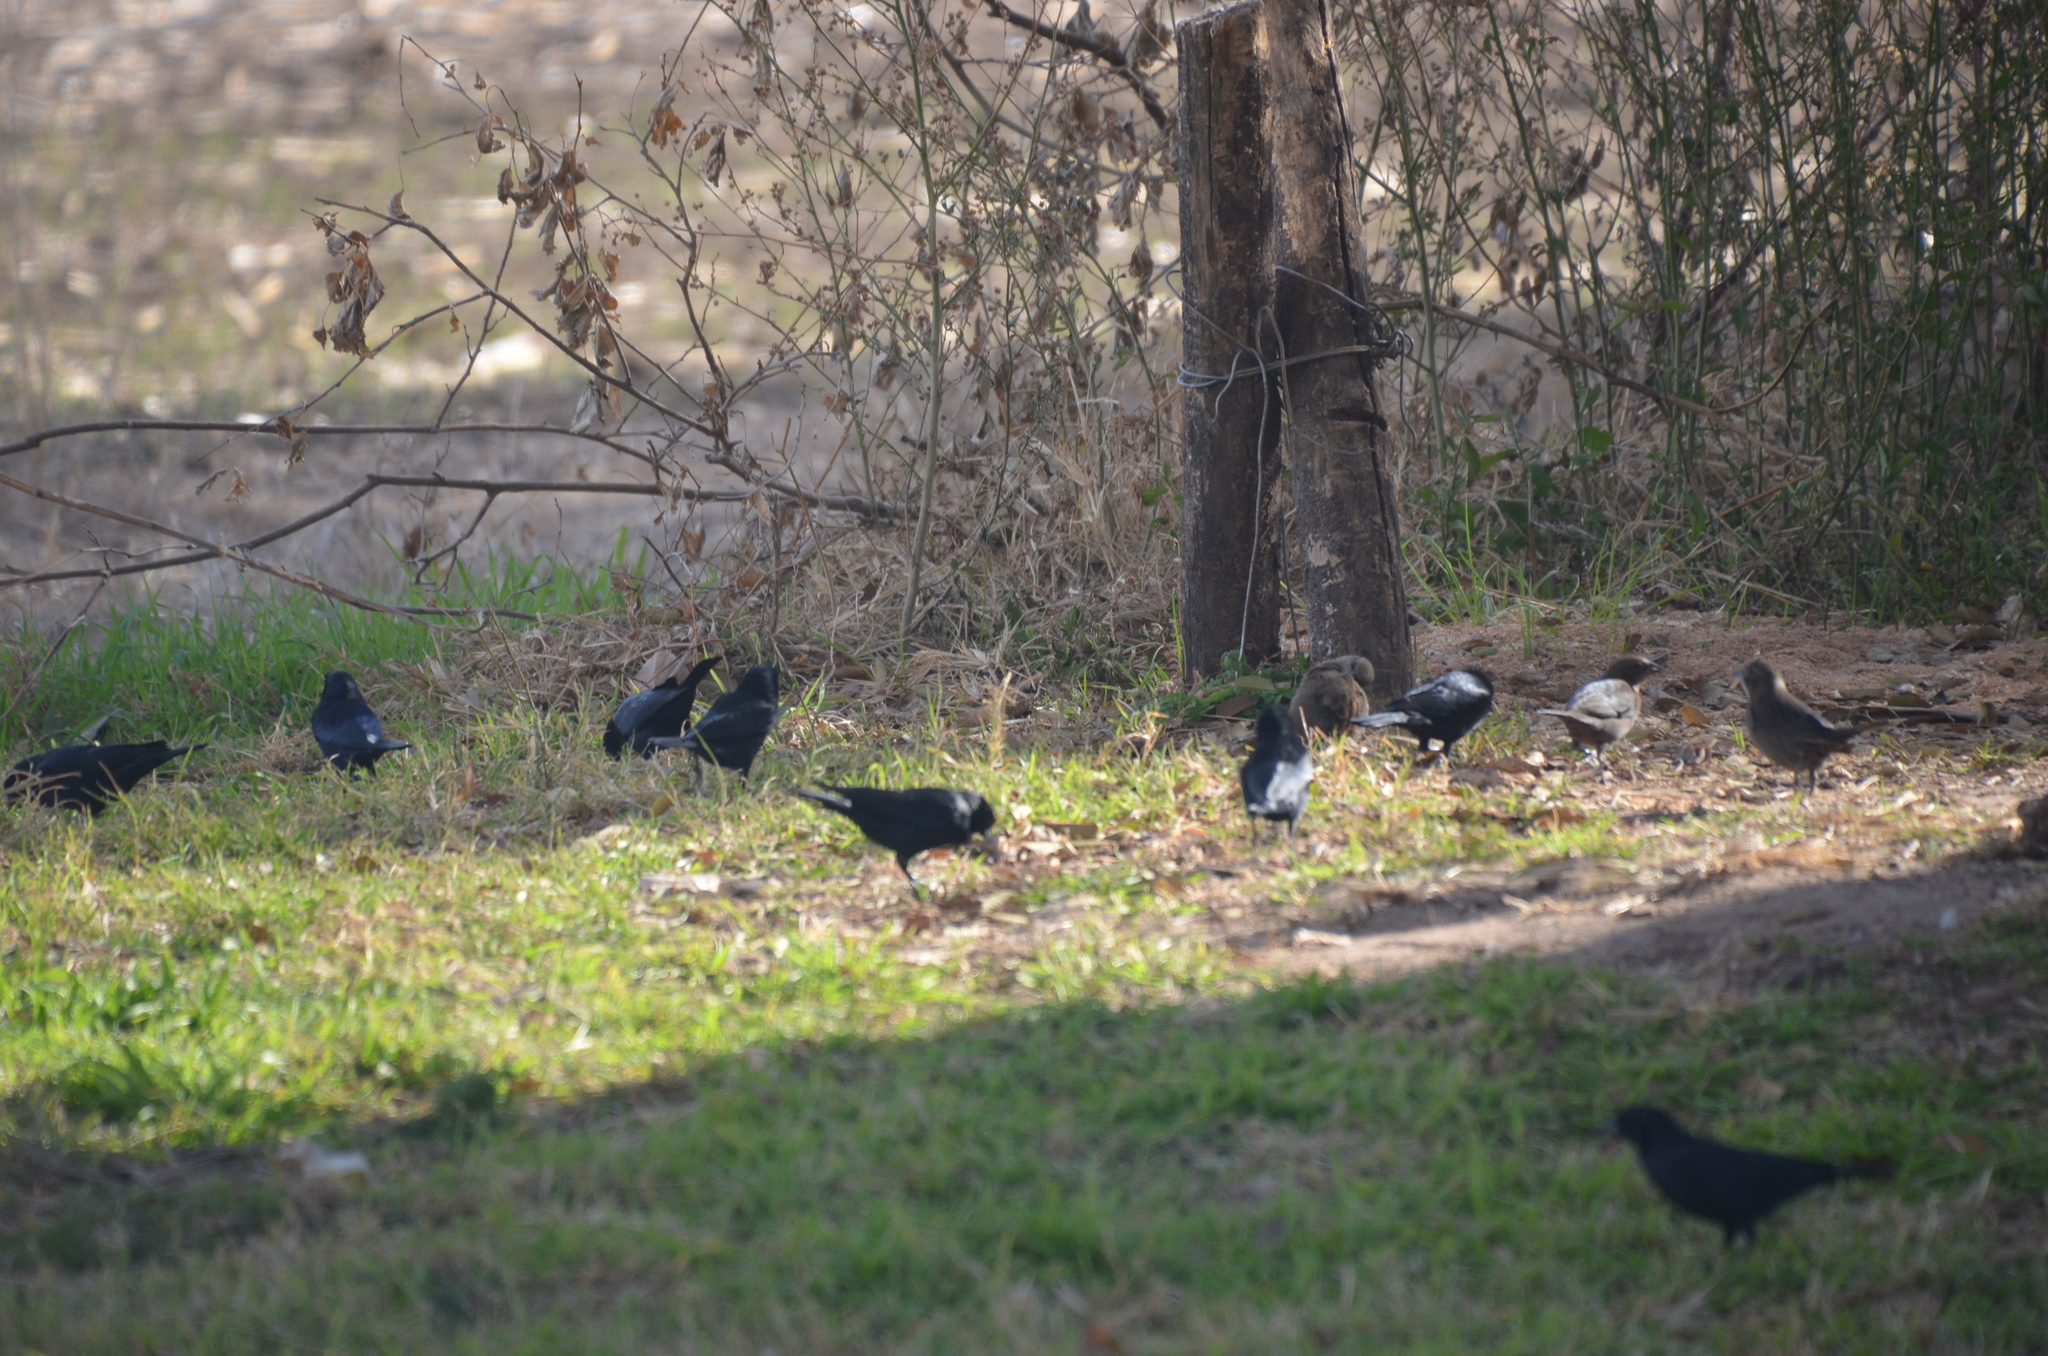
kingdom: Animalia
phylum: Chordata
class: Aves
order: Passeriformes
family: Icteridae
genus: Molothrus
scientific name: Molothrus bonariensis
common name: Shiny cowbird
